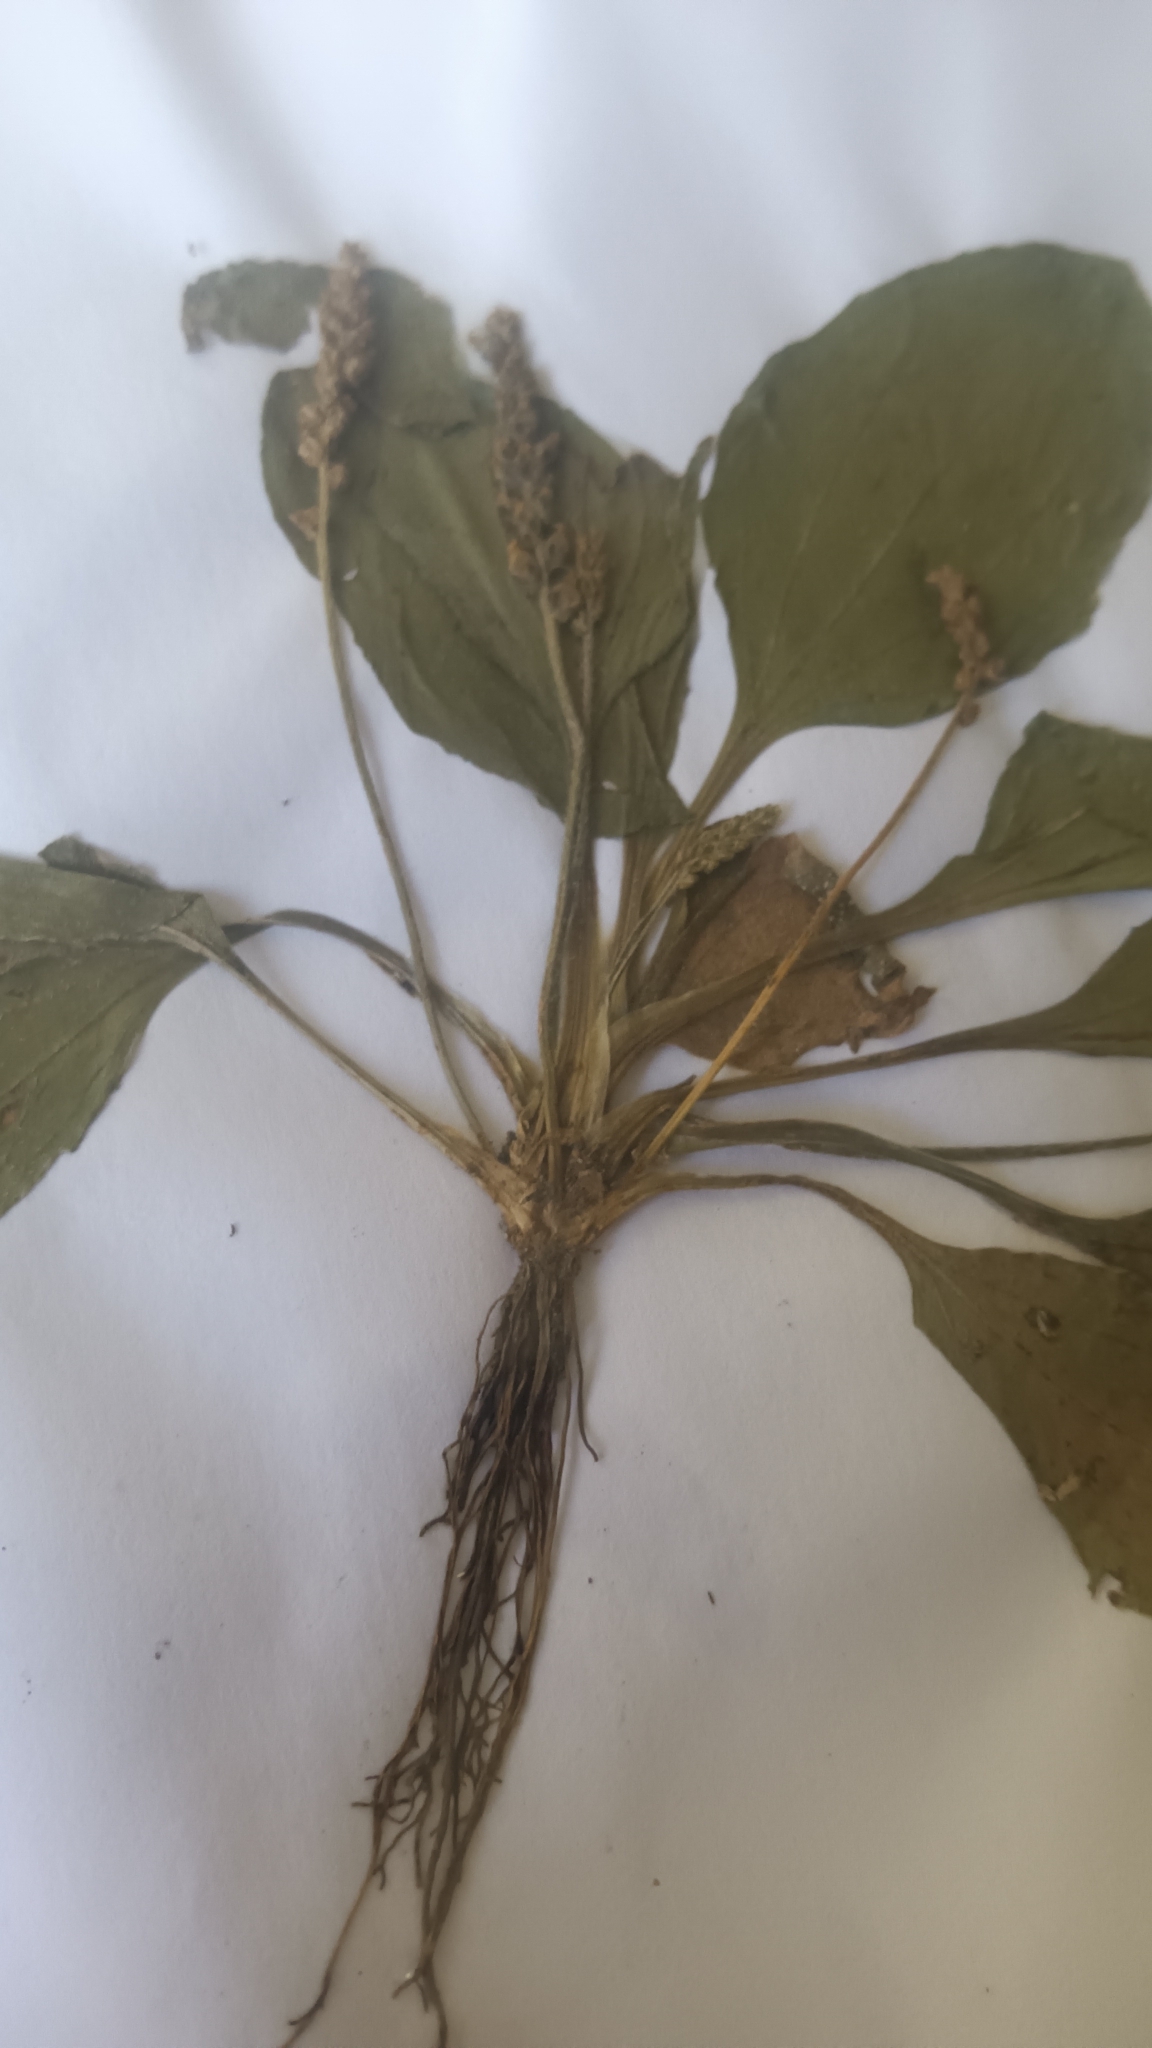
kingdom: Plantae
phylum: Tracheophyta
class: Magnoliopsida
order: Lamiales
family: Plantaginaceae
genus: Plantago
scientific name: Plantago major
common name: Common plantain
